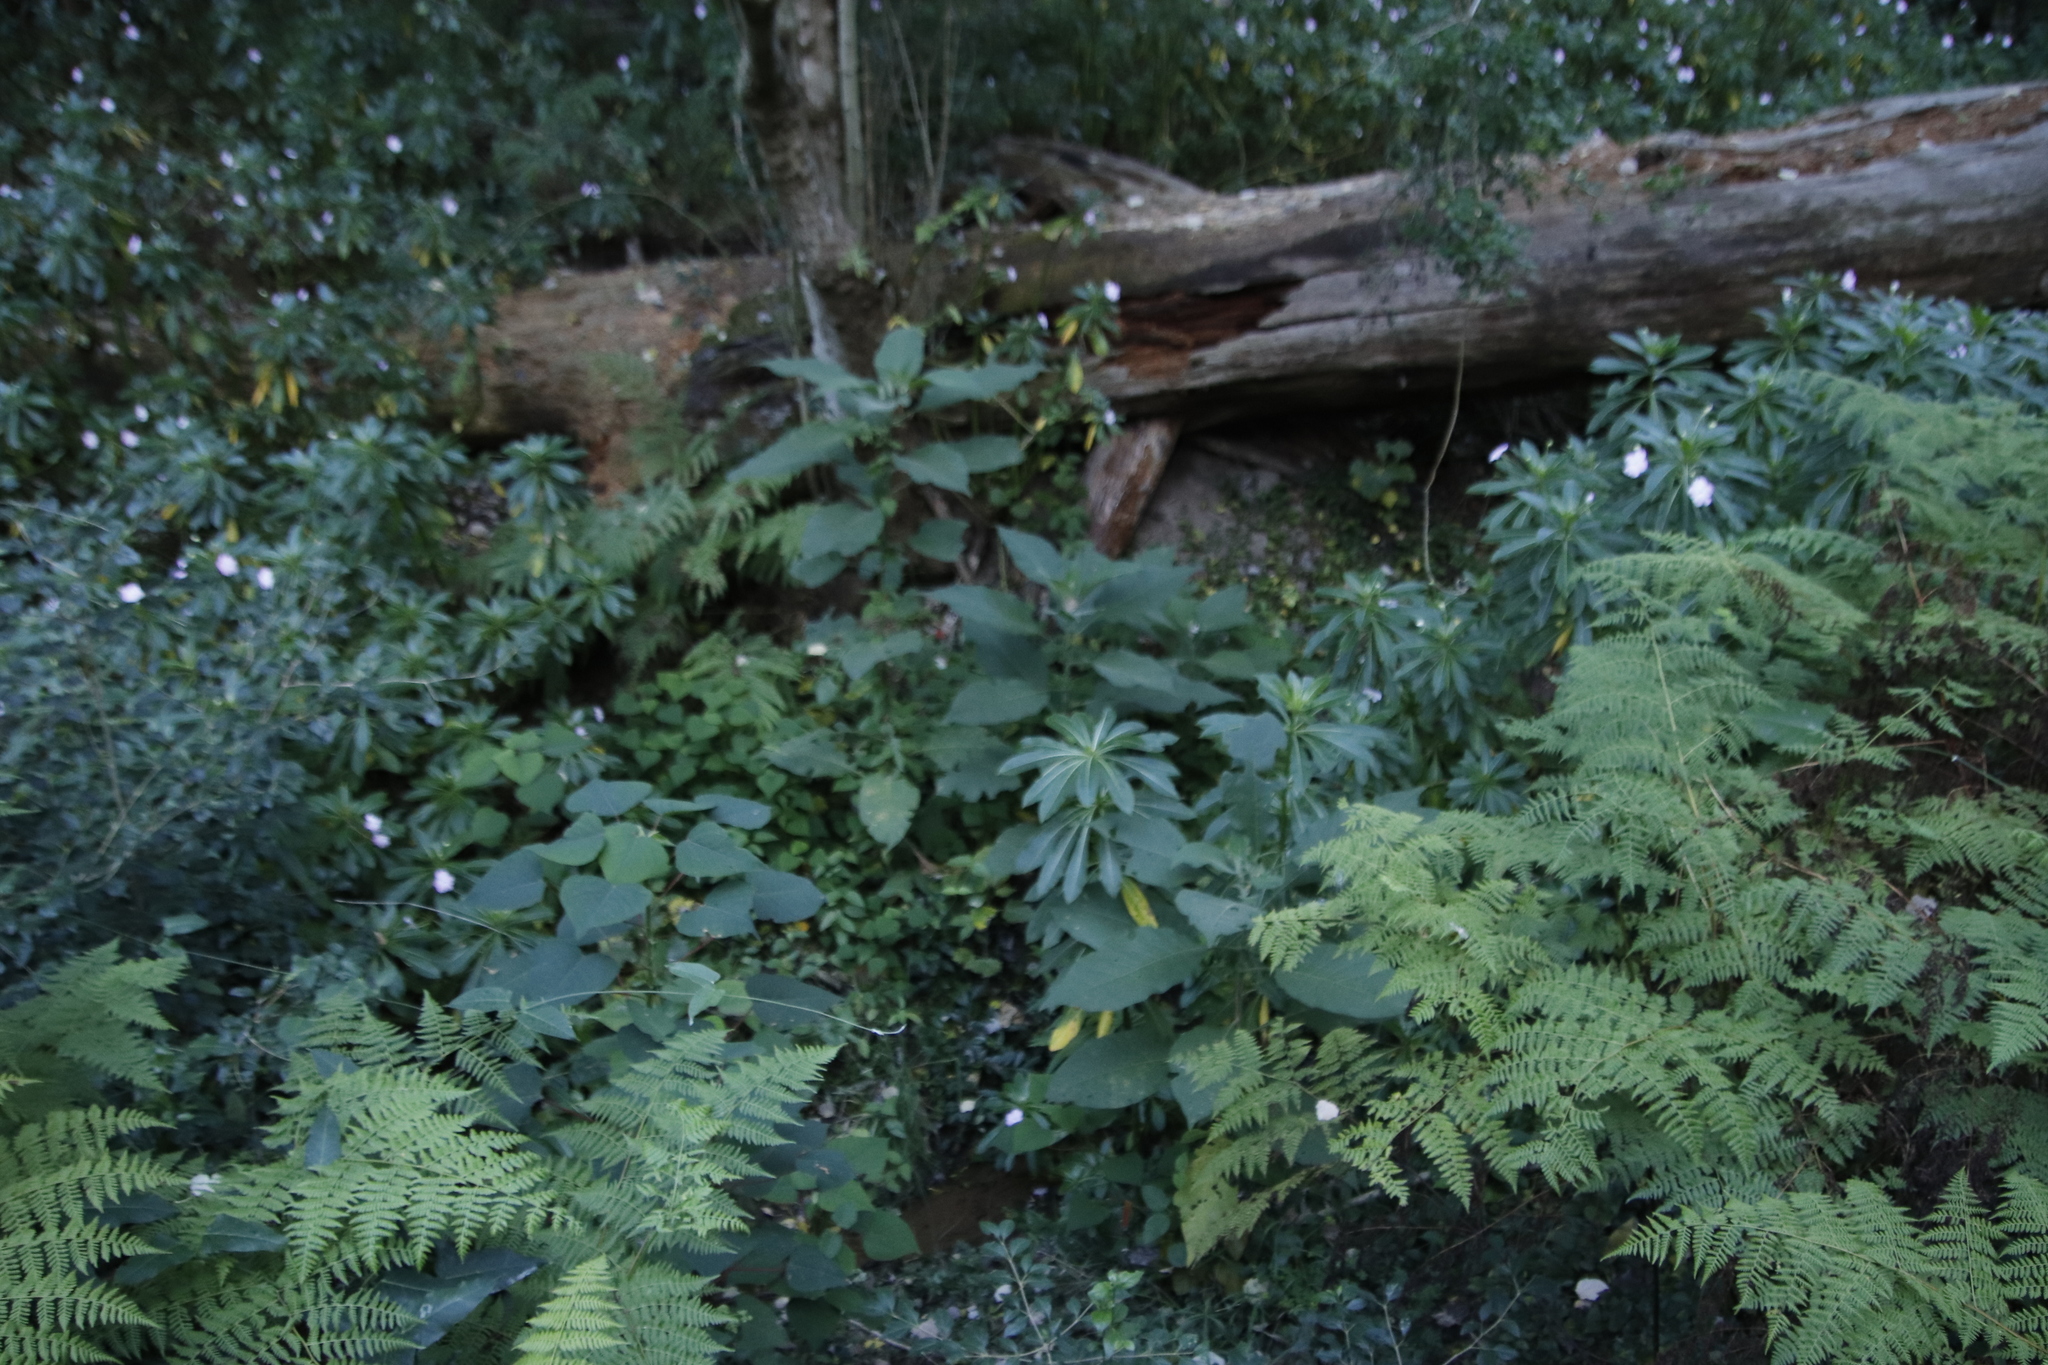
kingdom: Plantae
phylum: Tracheophyta
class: Magnoliopsida
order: Ericales
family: Balsaminaceae
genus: Impatiens
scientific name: Impatiens sodenii
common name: Oliver's touch-me-not
